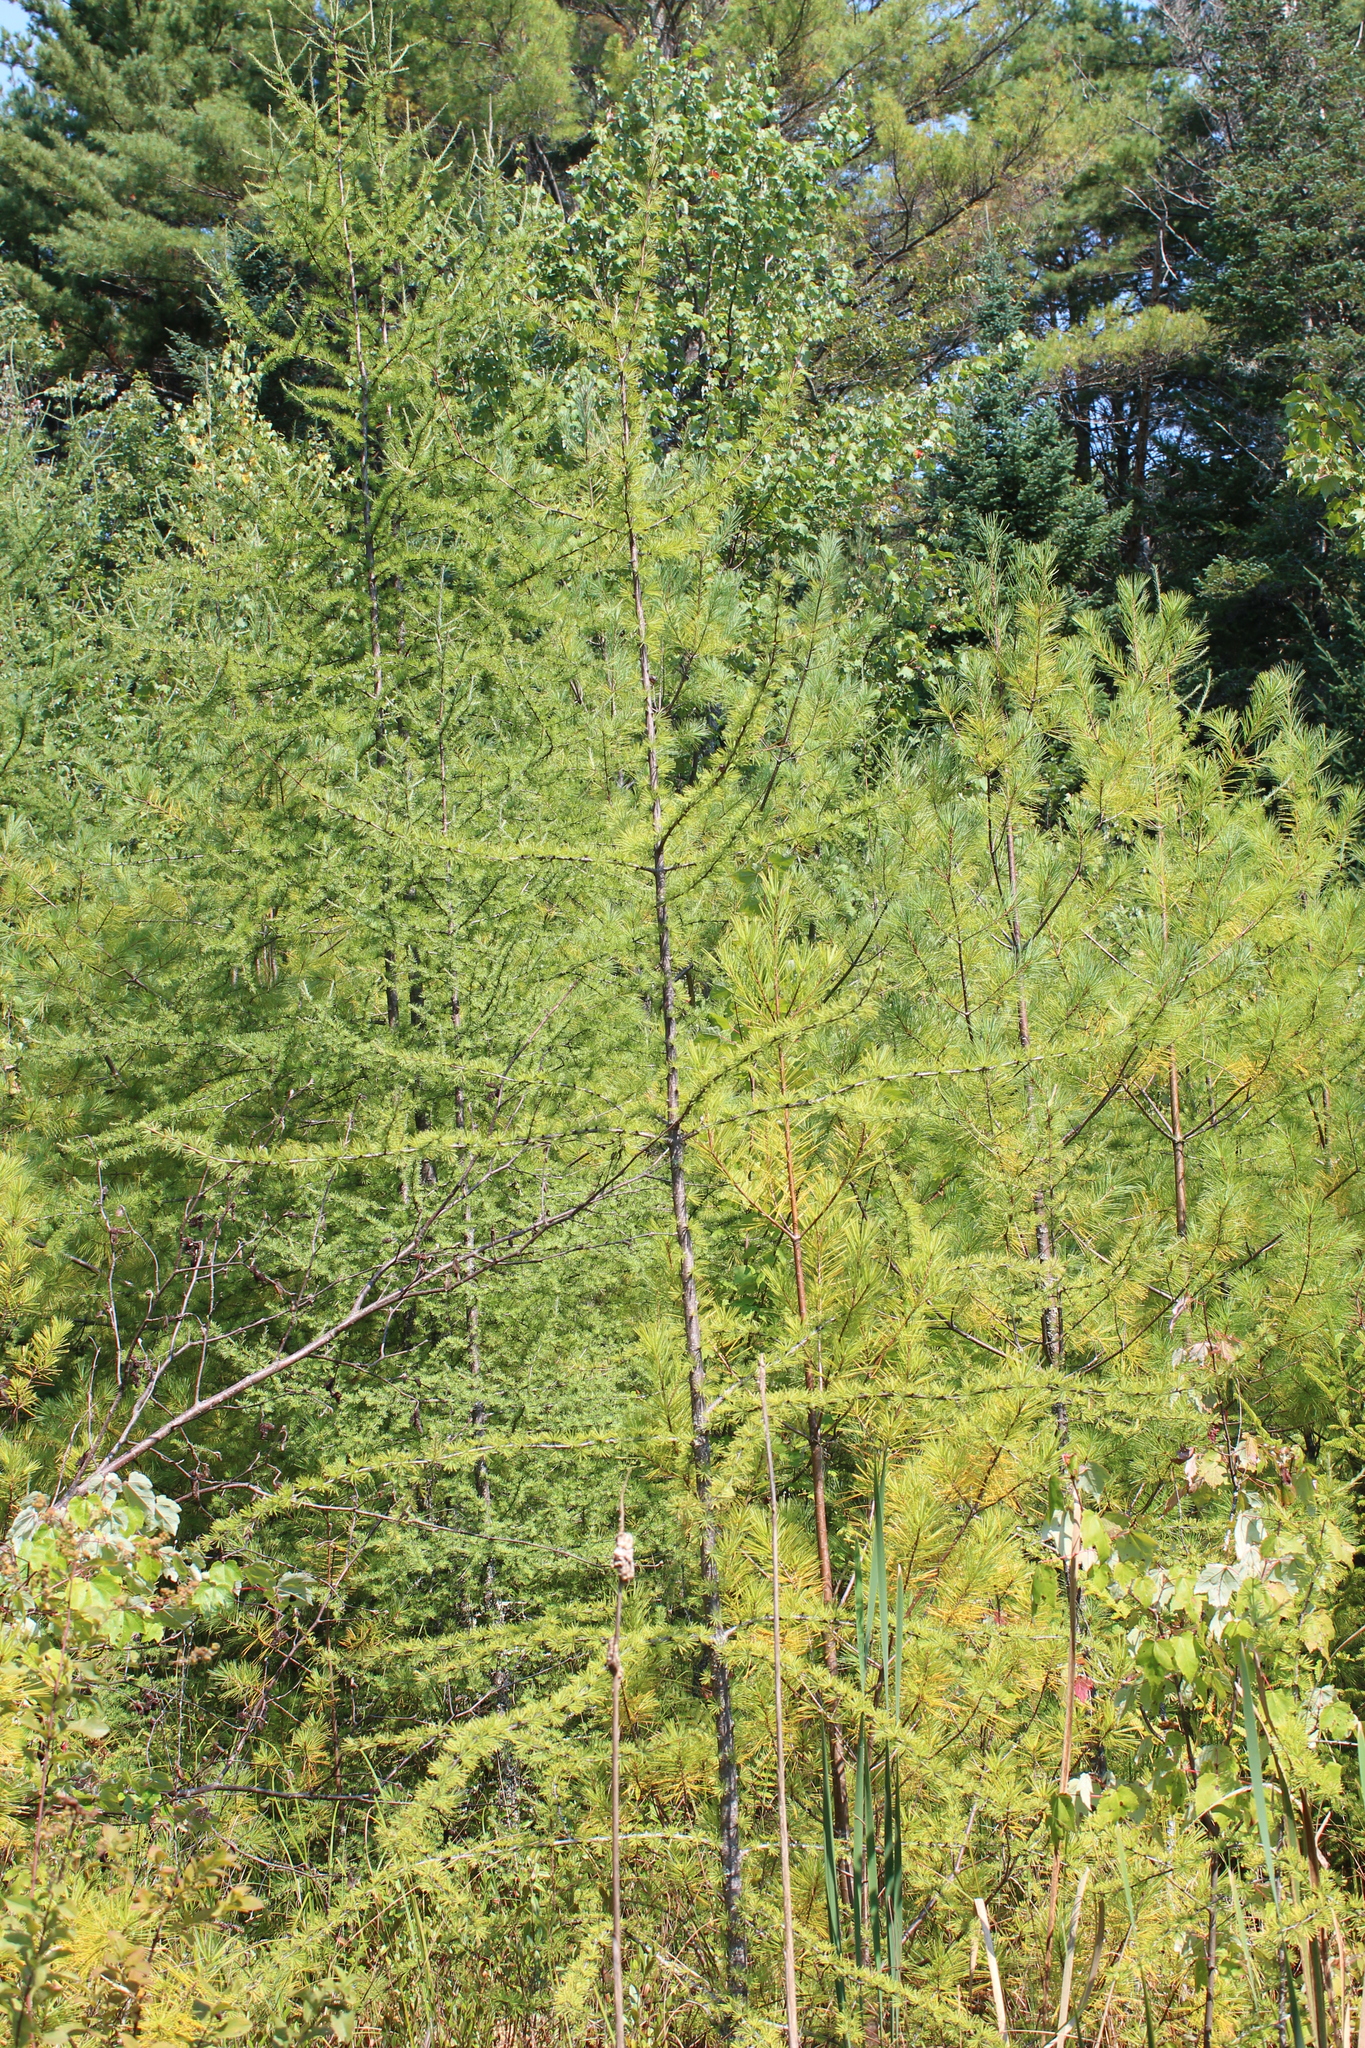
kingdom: Plantae
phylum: Tracheophyta
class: Pinopsida
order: Pinales
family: Pinaceae
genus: Larix
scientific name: Larix laricina
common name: American larch
